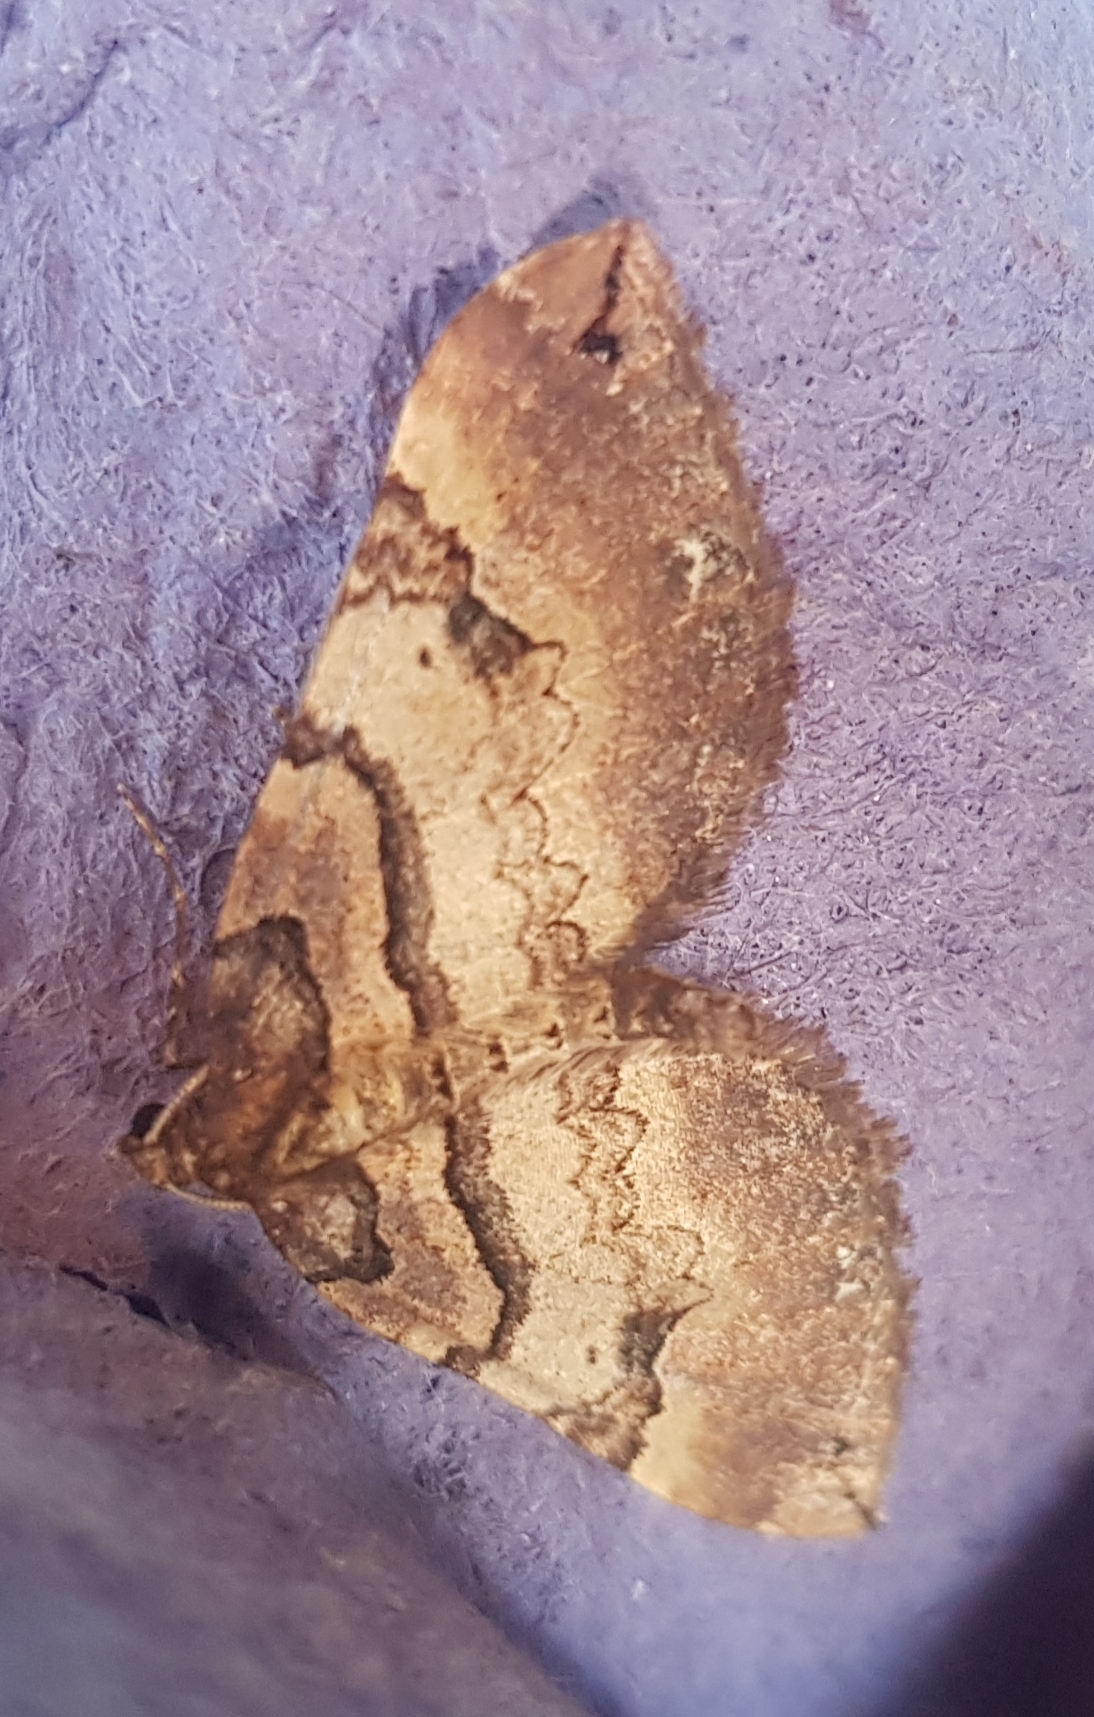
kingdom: Animalia
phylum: Arthropoda
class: Insecta
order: Lepidoptera
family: Geometridae
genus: Anticlea
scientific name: Anticlea badiata
